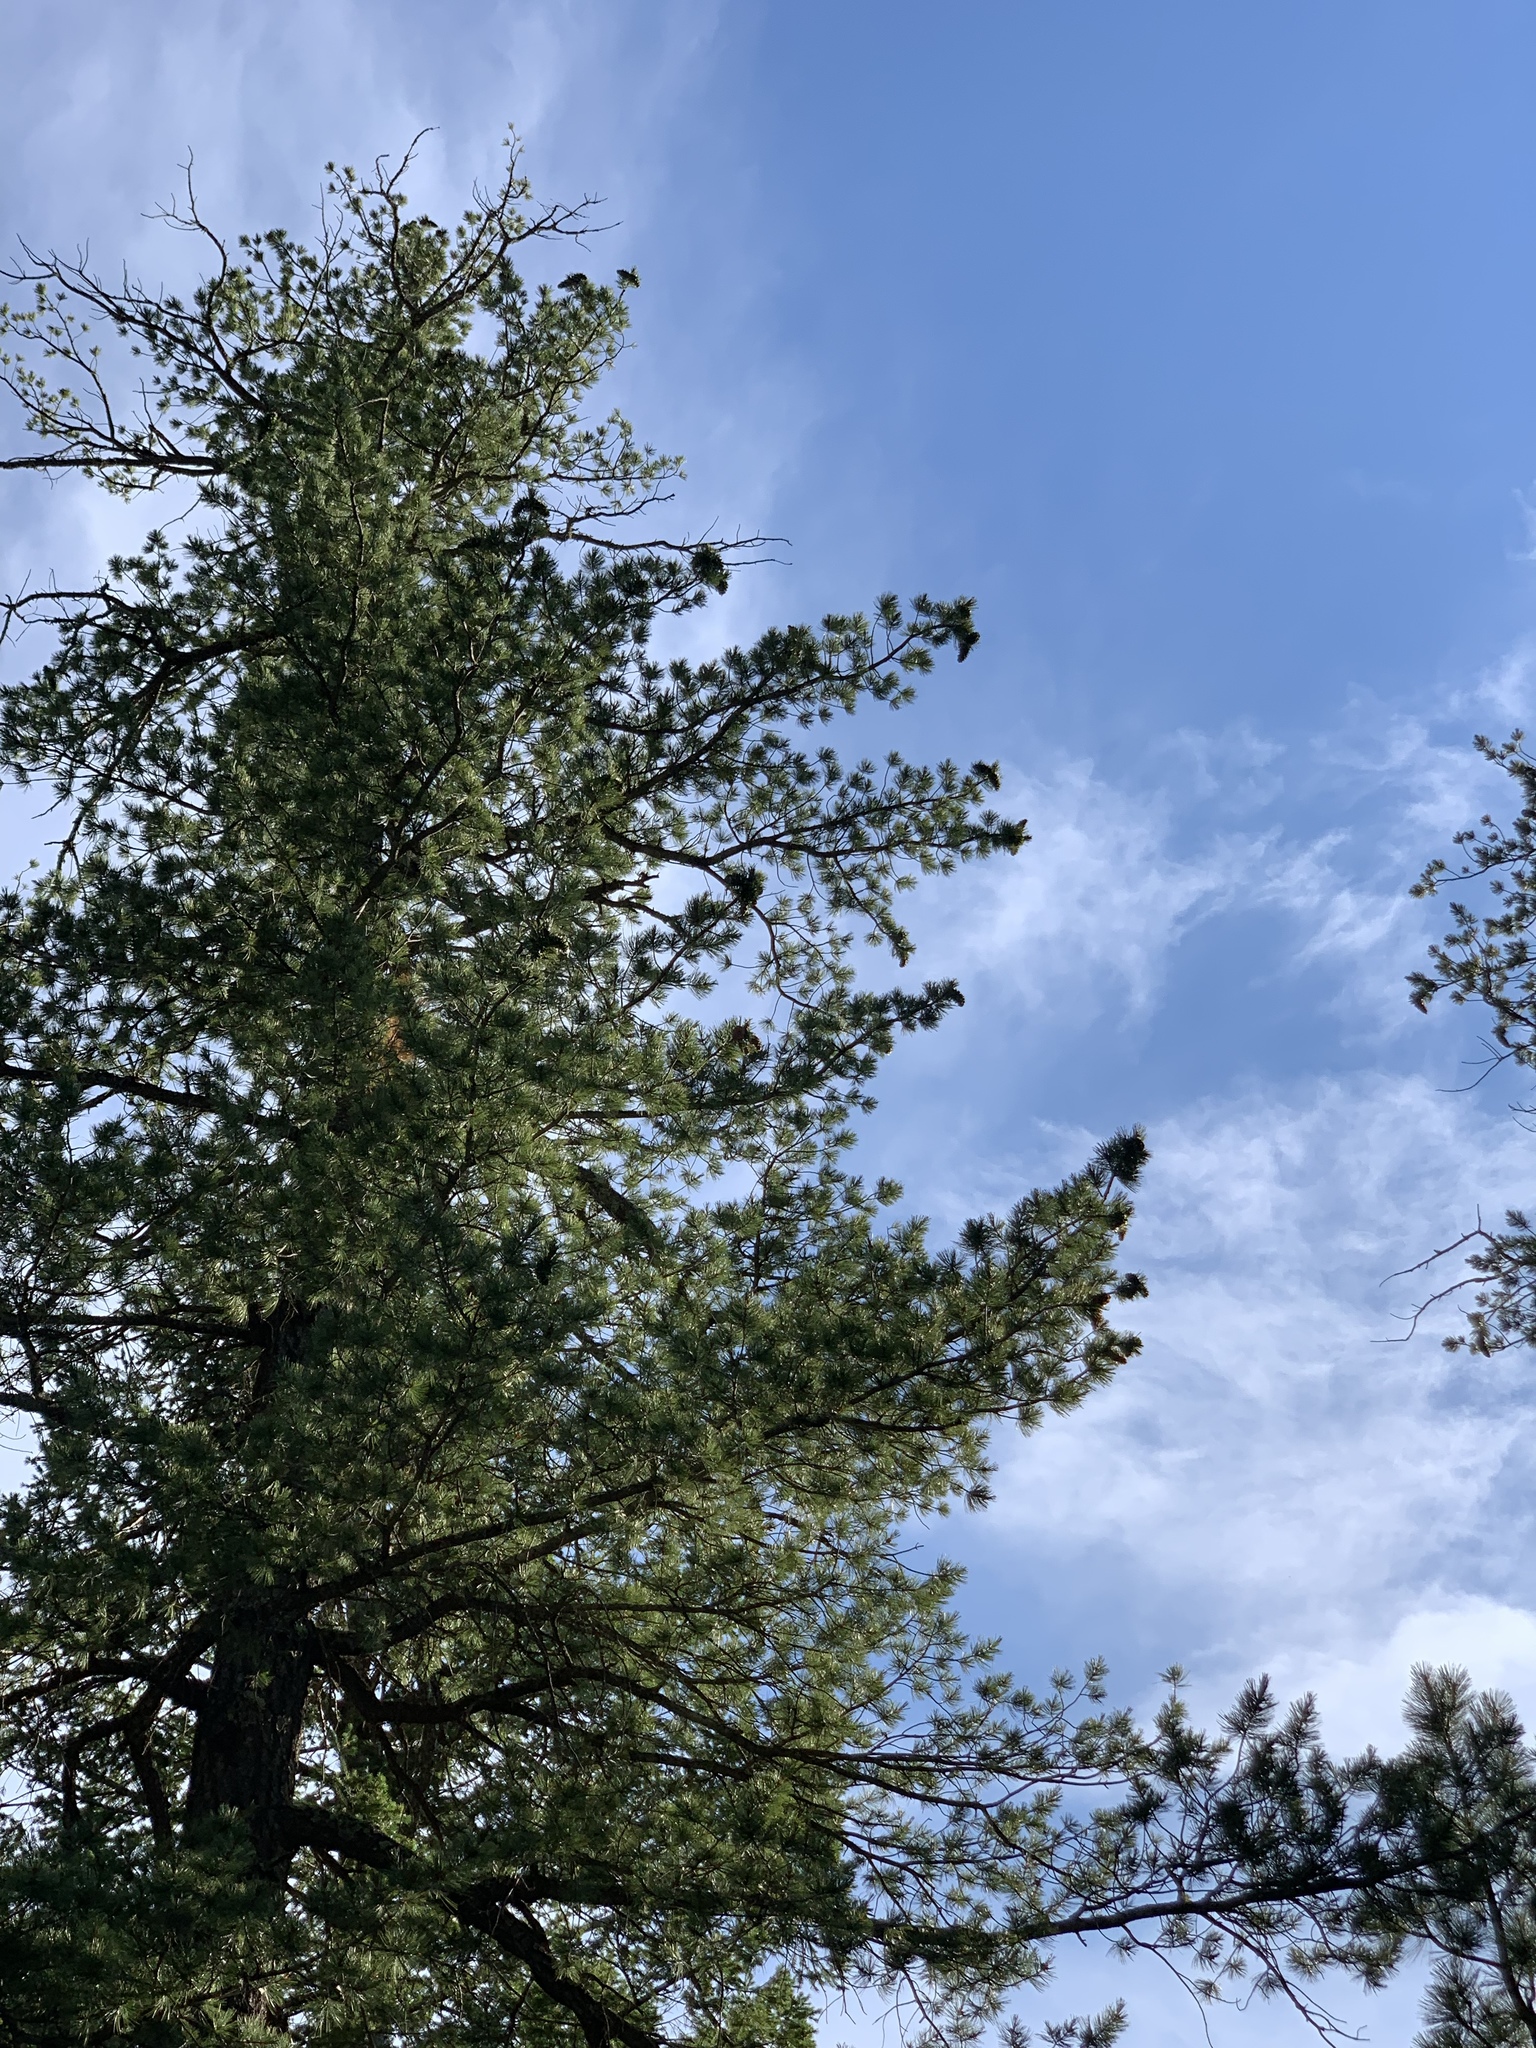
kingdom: Plantae
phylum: Tracheophyta
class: Pinopsida
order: Pinales
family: Pinaceae
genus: Pinus
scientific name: Pinus strobiformis
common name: Southwestern white pine
